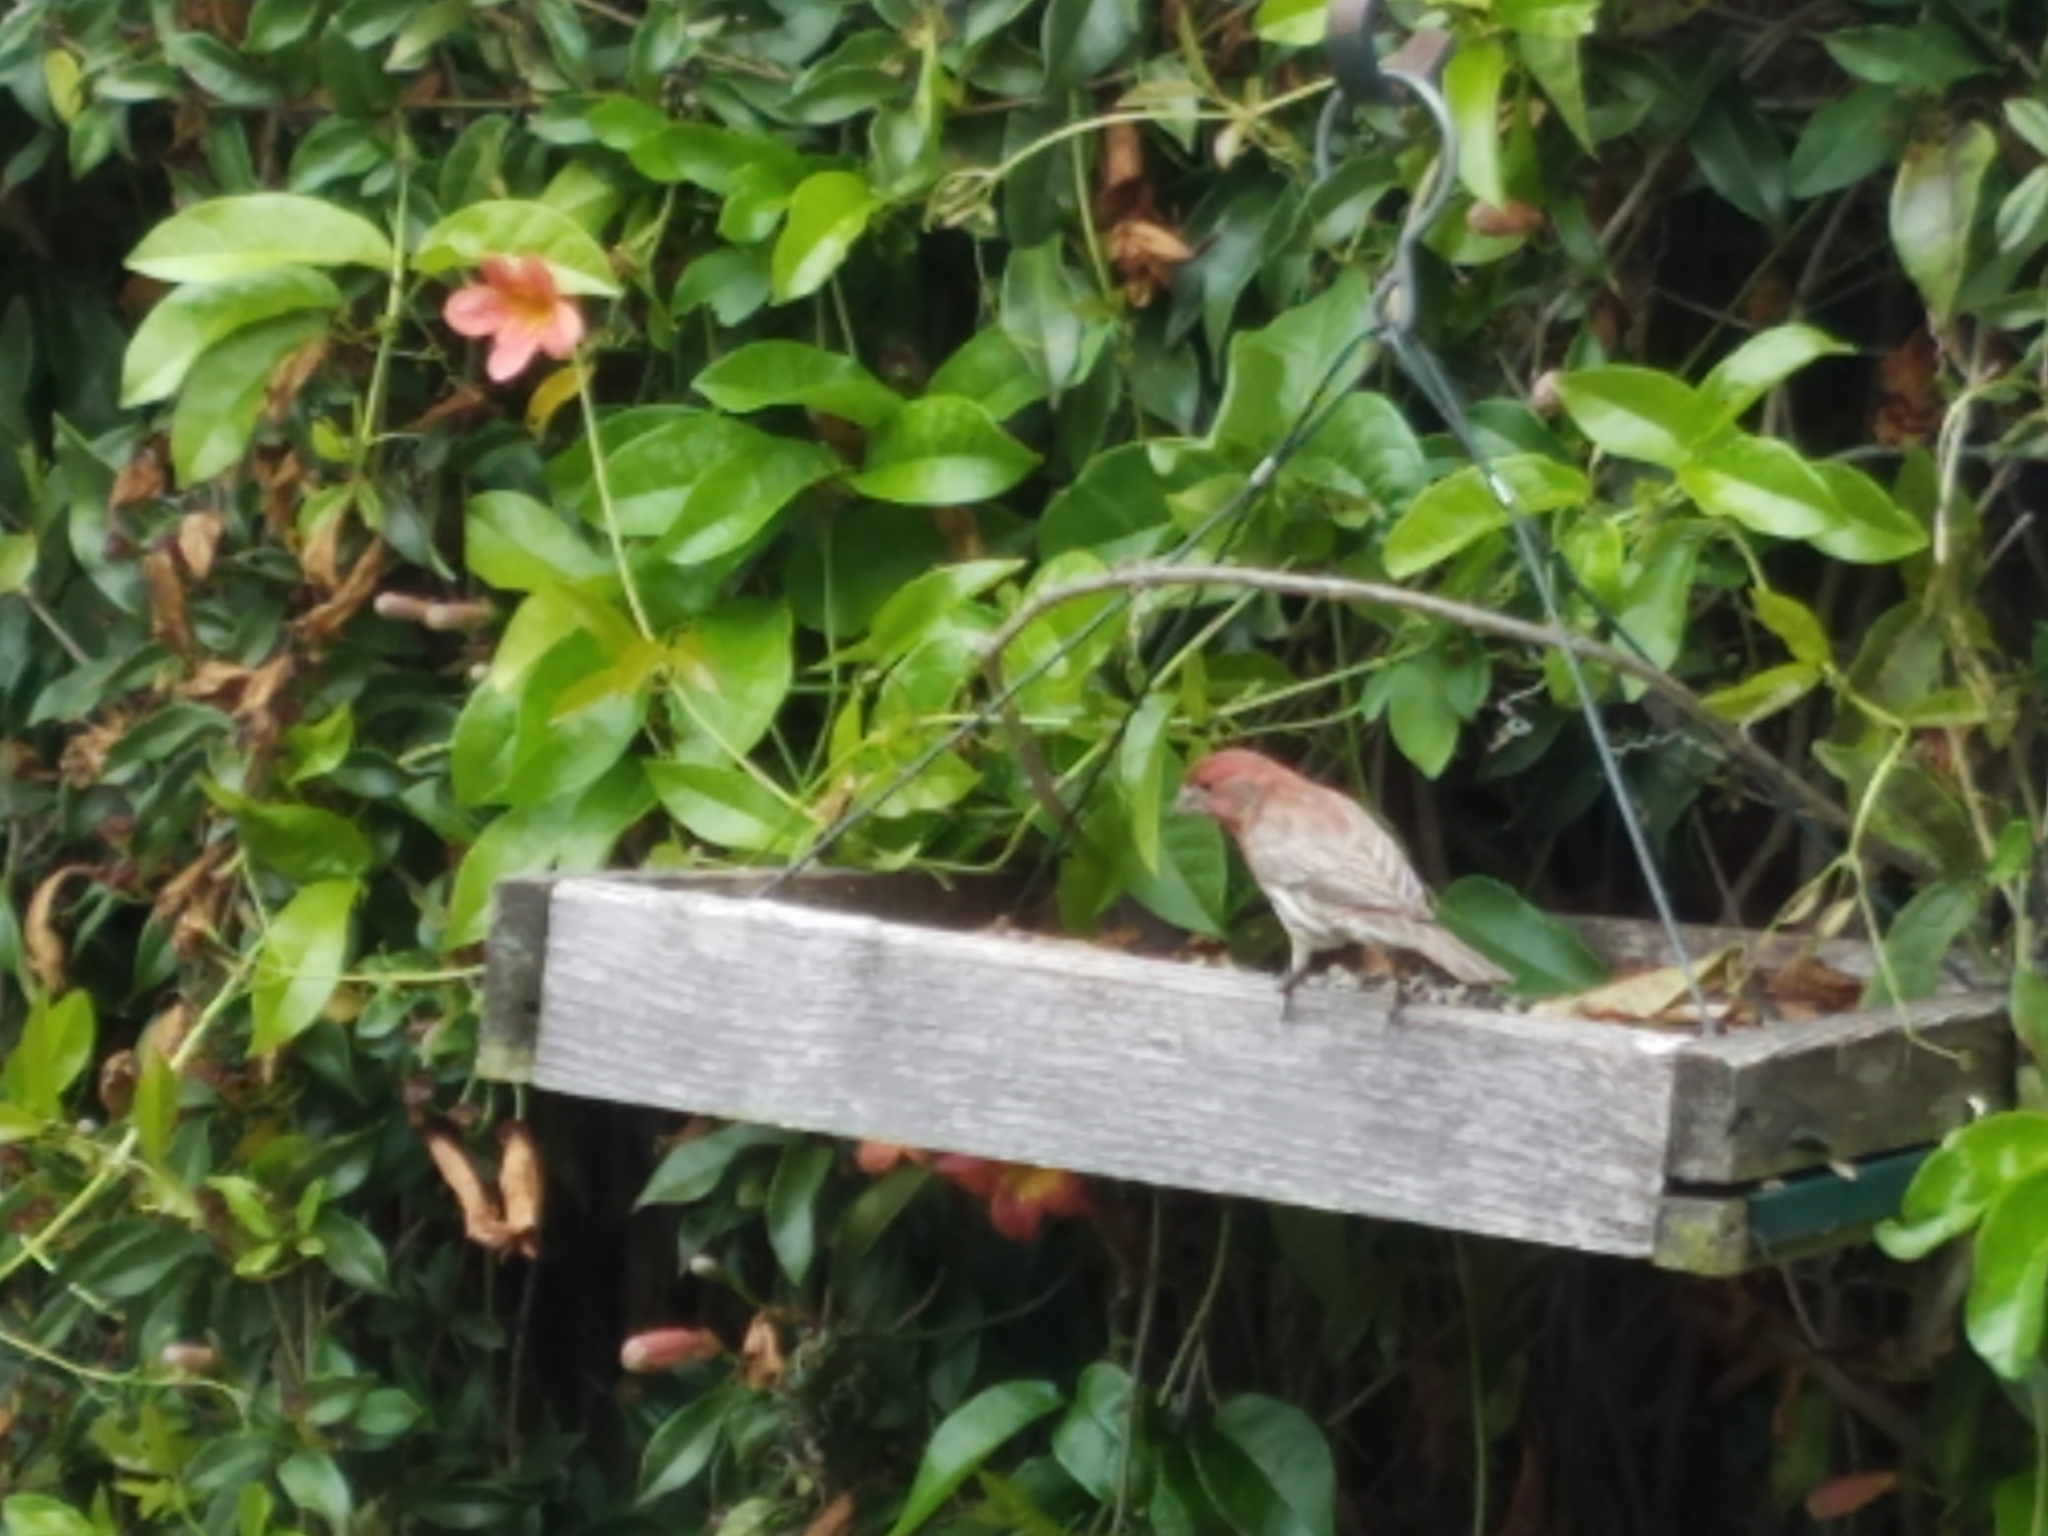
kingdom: Animalia
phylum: Chordata
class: Aves
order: Passeriformes
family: Fringillidae
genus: Haemorhous
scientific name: Haemorhous mexicanus
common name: House finch
